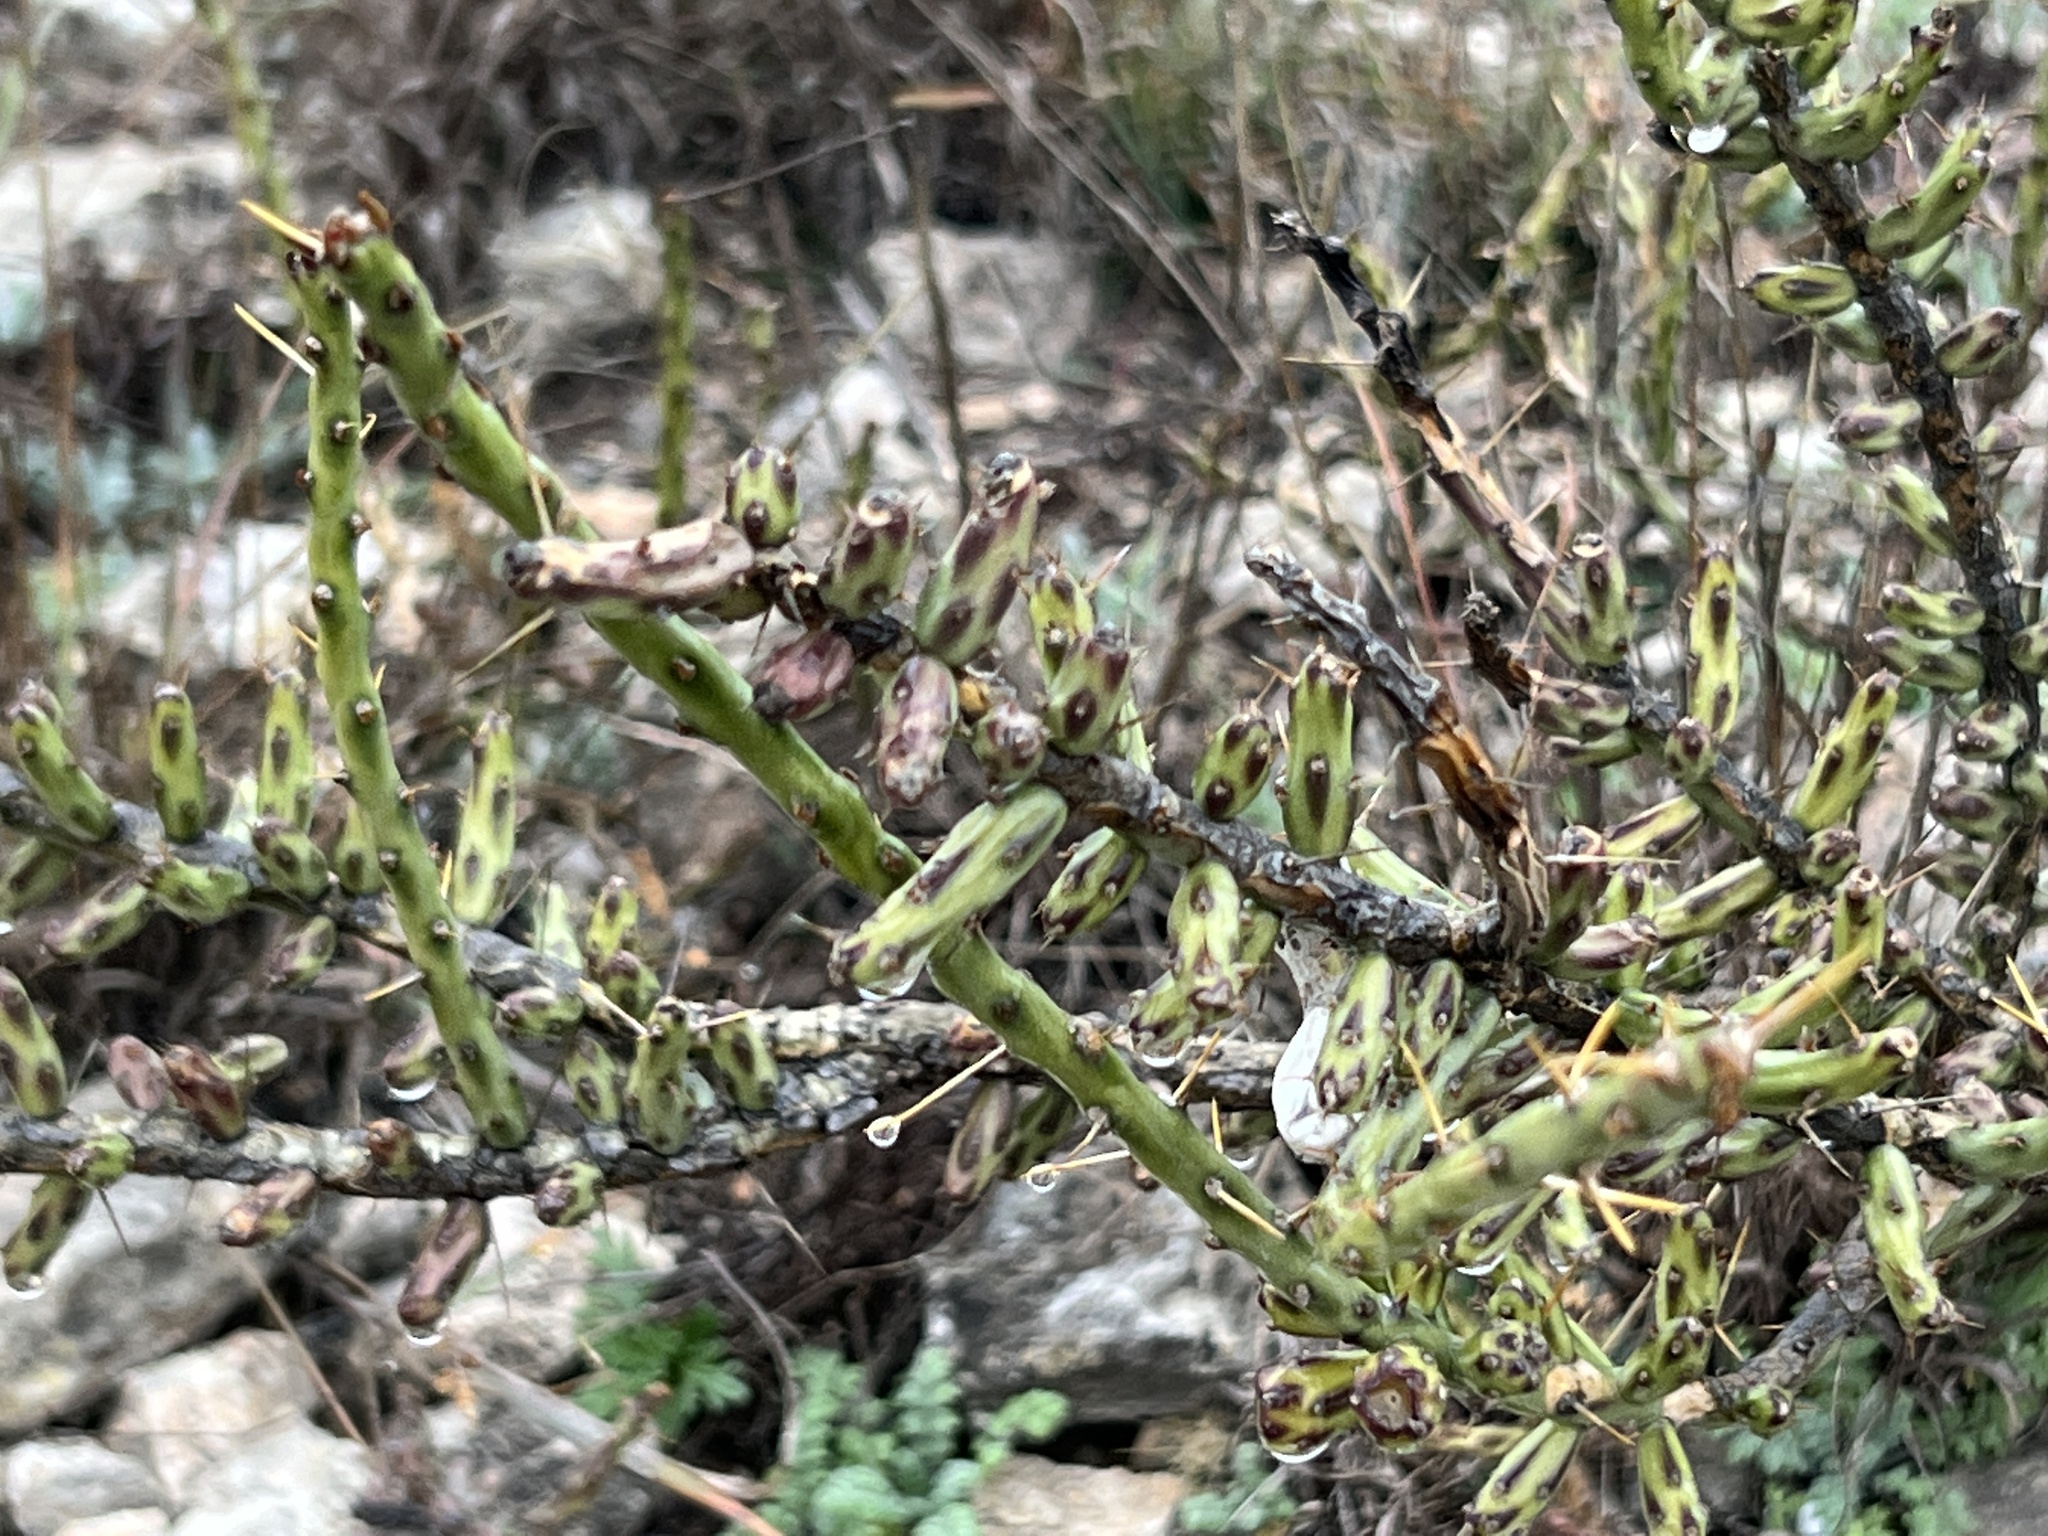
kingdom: Plantae
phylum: Tracheophyta
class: Magnoliopsida
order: Caryophyllales
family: Cactaceae
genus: Cylindropuntia
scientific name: Cylindropuntia leptocaulis
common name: Christmas cactus
